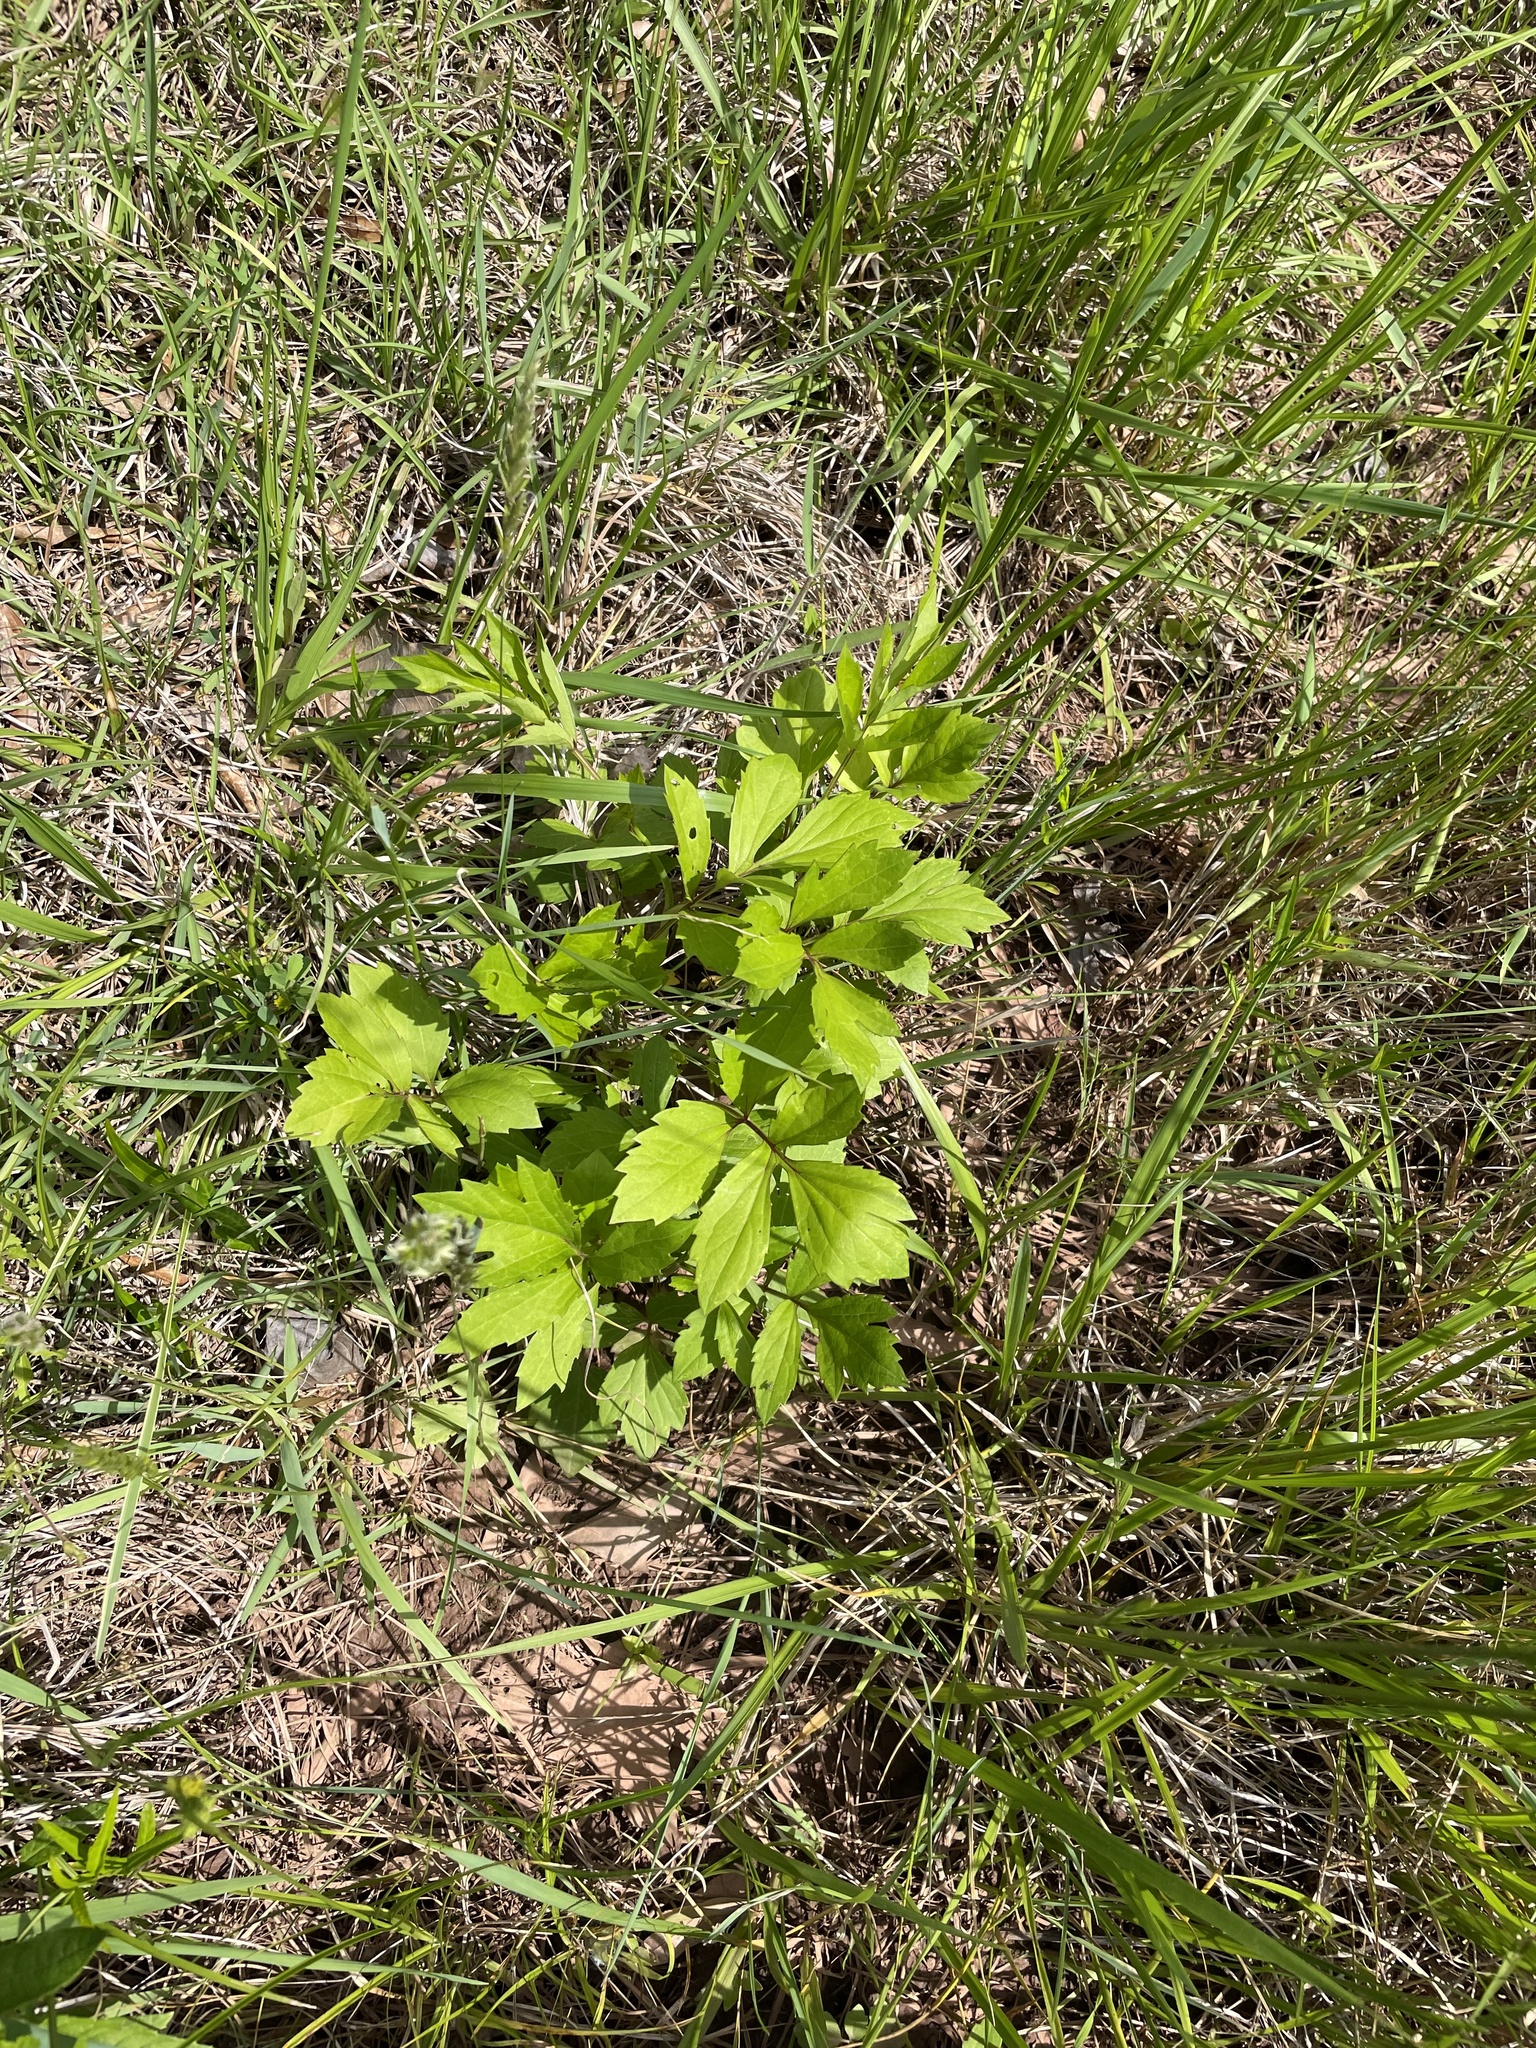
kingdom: Plantae
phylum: Tracheophyta
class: Magnoliopsida
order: Asterales
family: Asteraceae
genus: Rudbeckia
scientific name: Rudbeckia laciniata
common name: Coneflower
